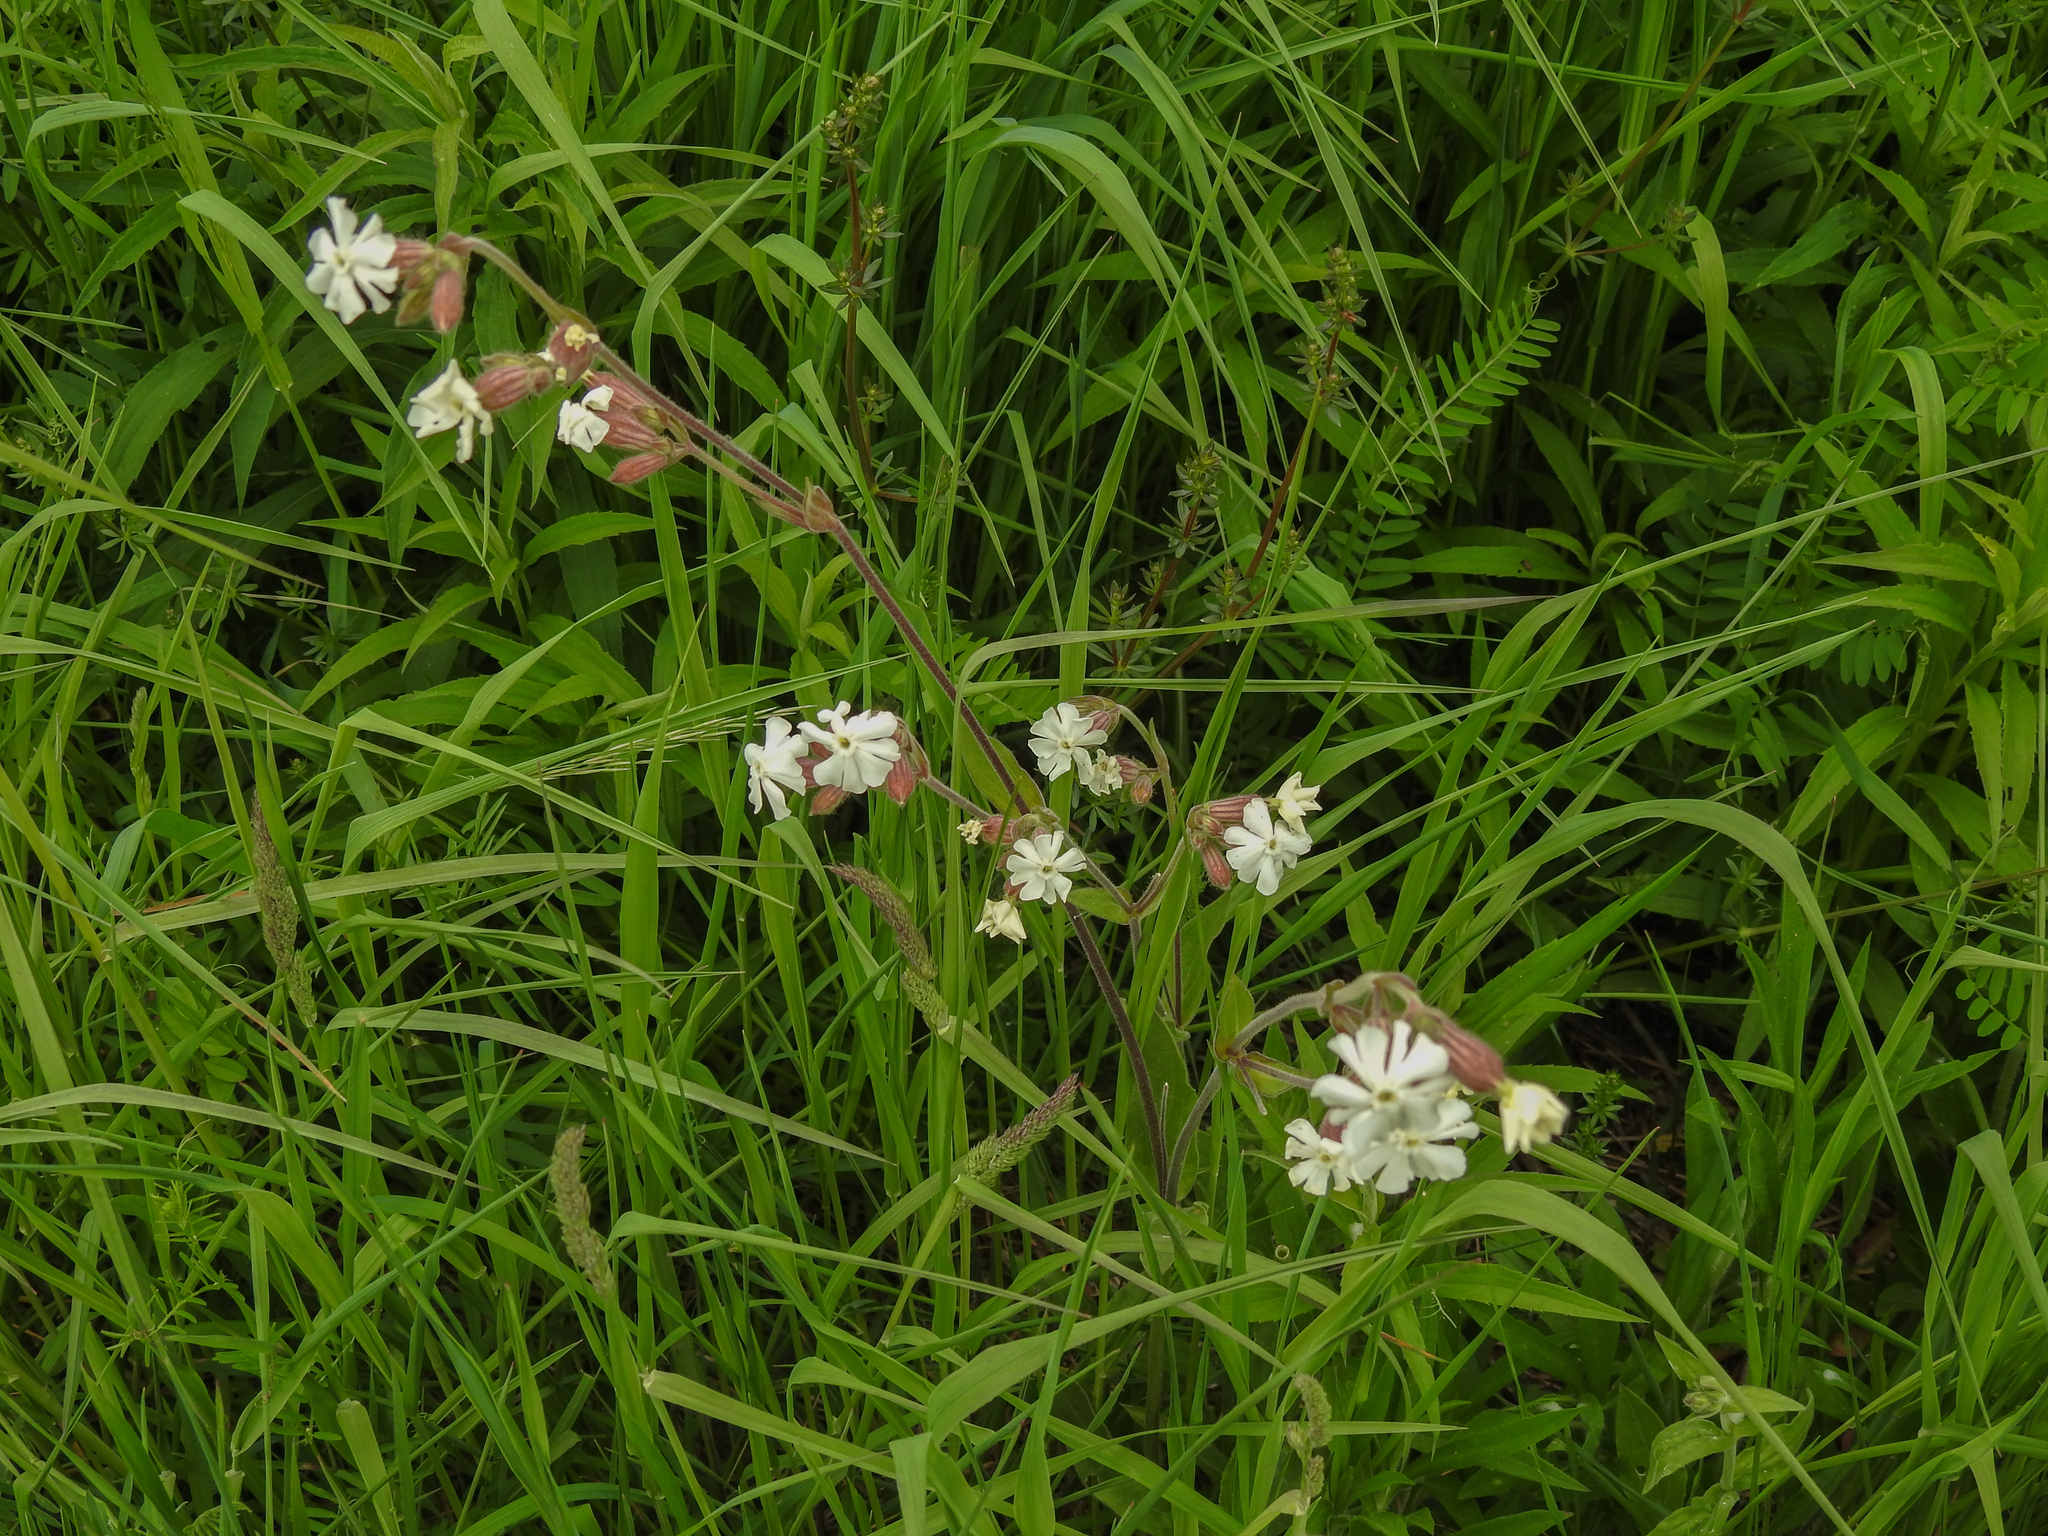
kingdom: Plantae
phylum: Tracheophyta
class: Magnoliopsida
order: Caryophyllales
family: Caryophyllaceae
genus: Silene
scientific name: Silene latifolia
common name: White campion
